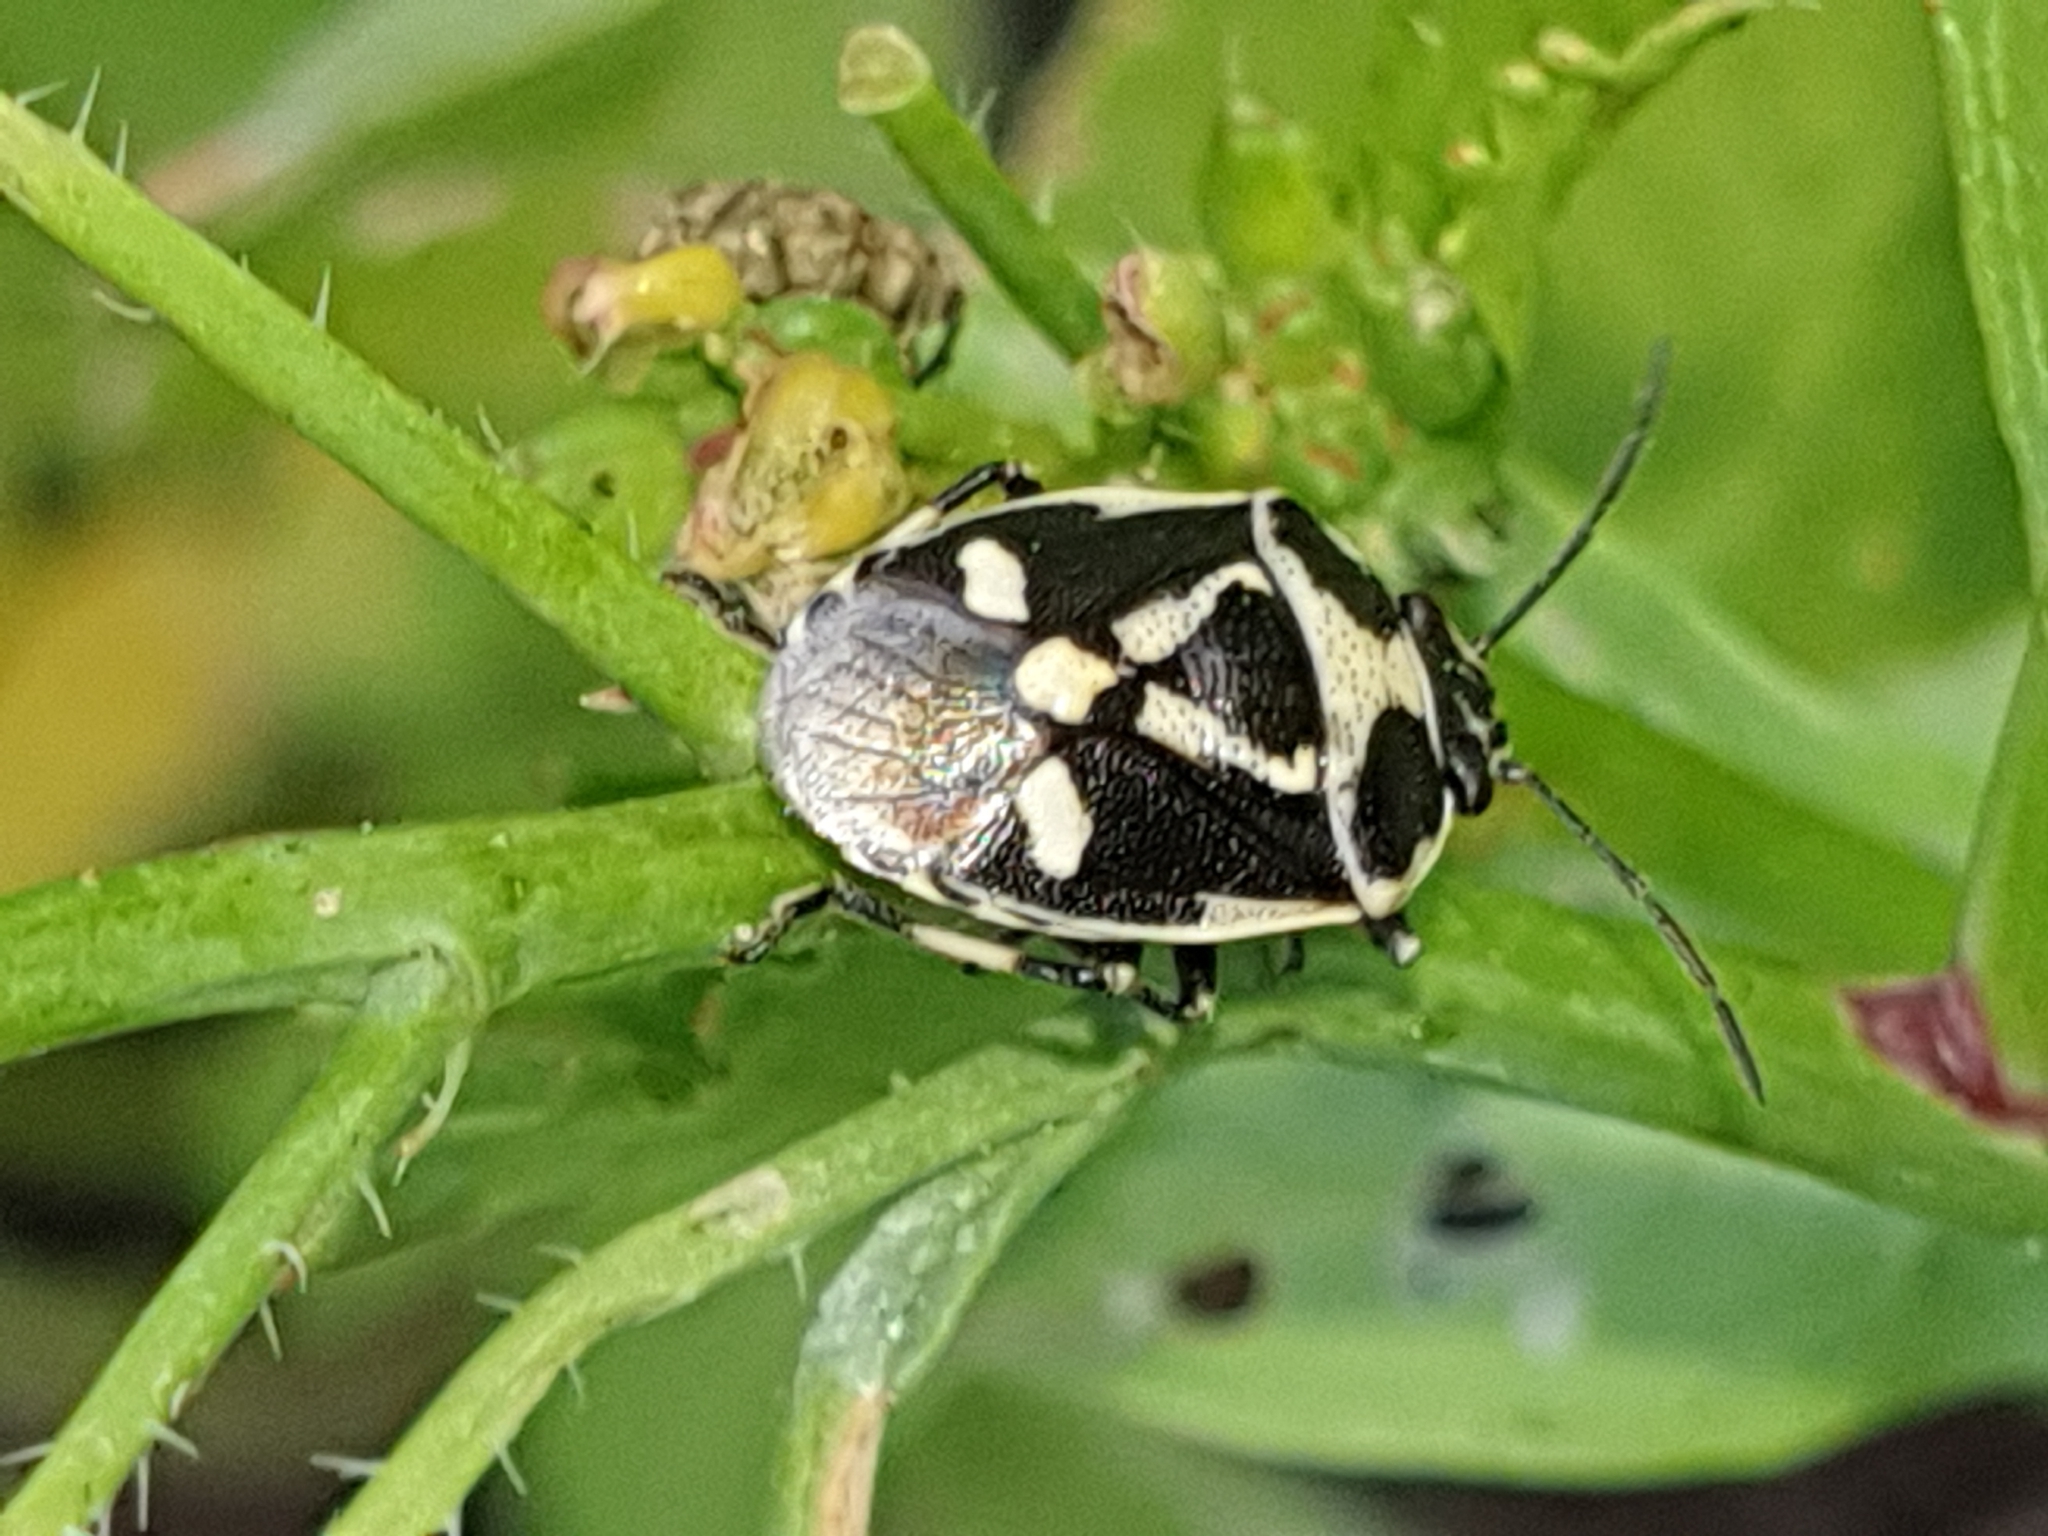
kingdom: Animalia
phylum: Arthropoda
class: Insecta
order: Hemiptera
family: Pentatomidae
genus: Eurydema
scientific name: Eurydema oleracea
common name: Cabbage bug
